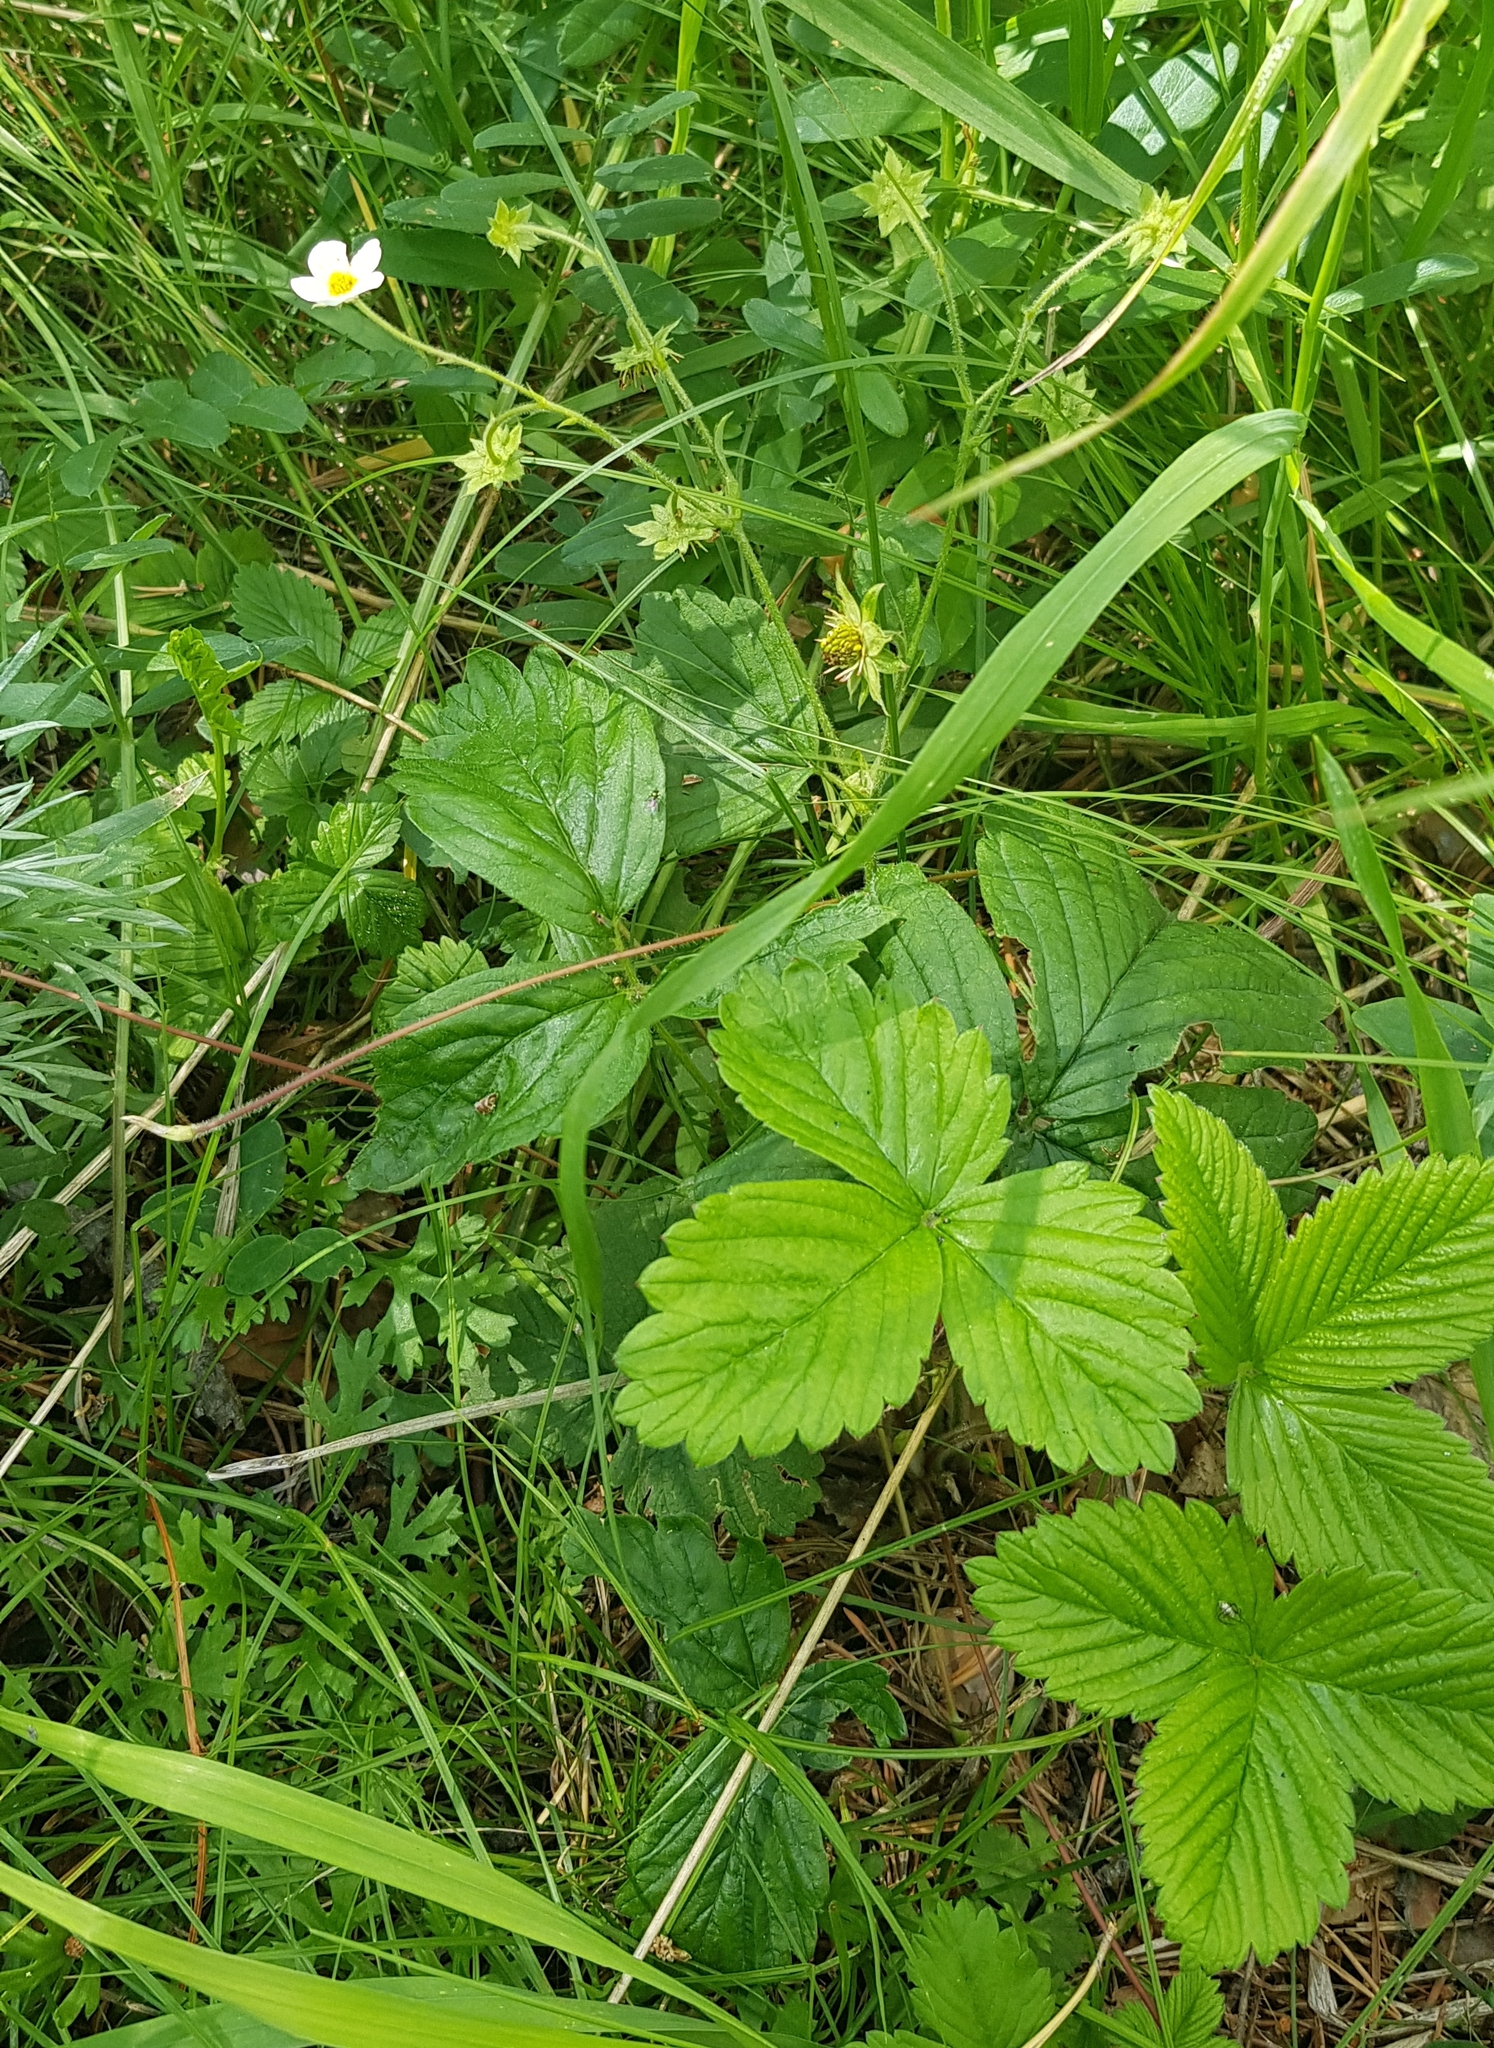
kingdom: Plantae
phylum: Tracheophyta
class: Magnoliopsida
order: Rosales
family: Rosaceae
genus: Fragaria
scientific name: Fragaria orientalis
